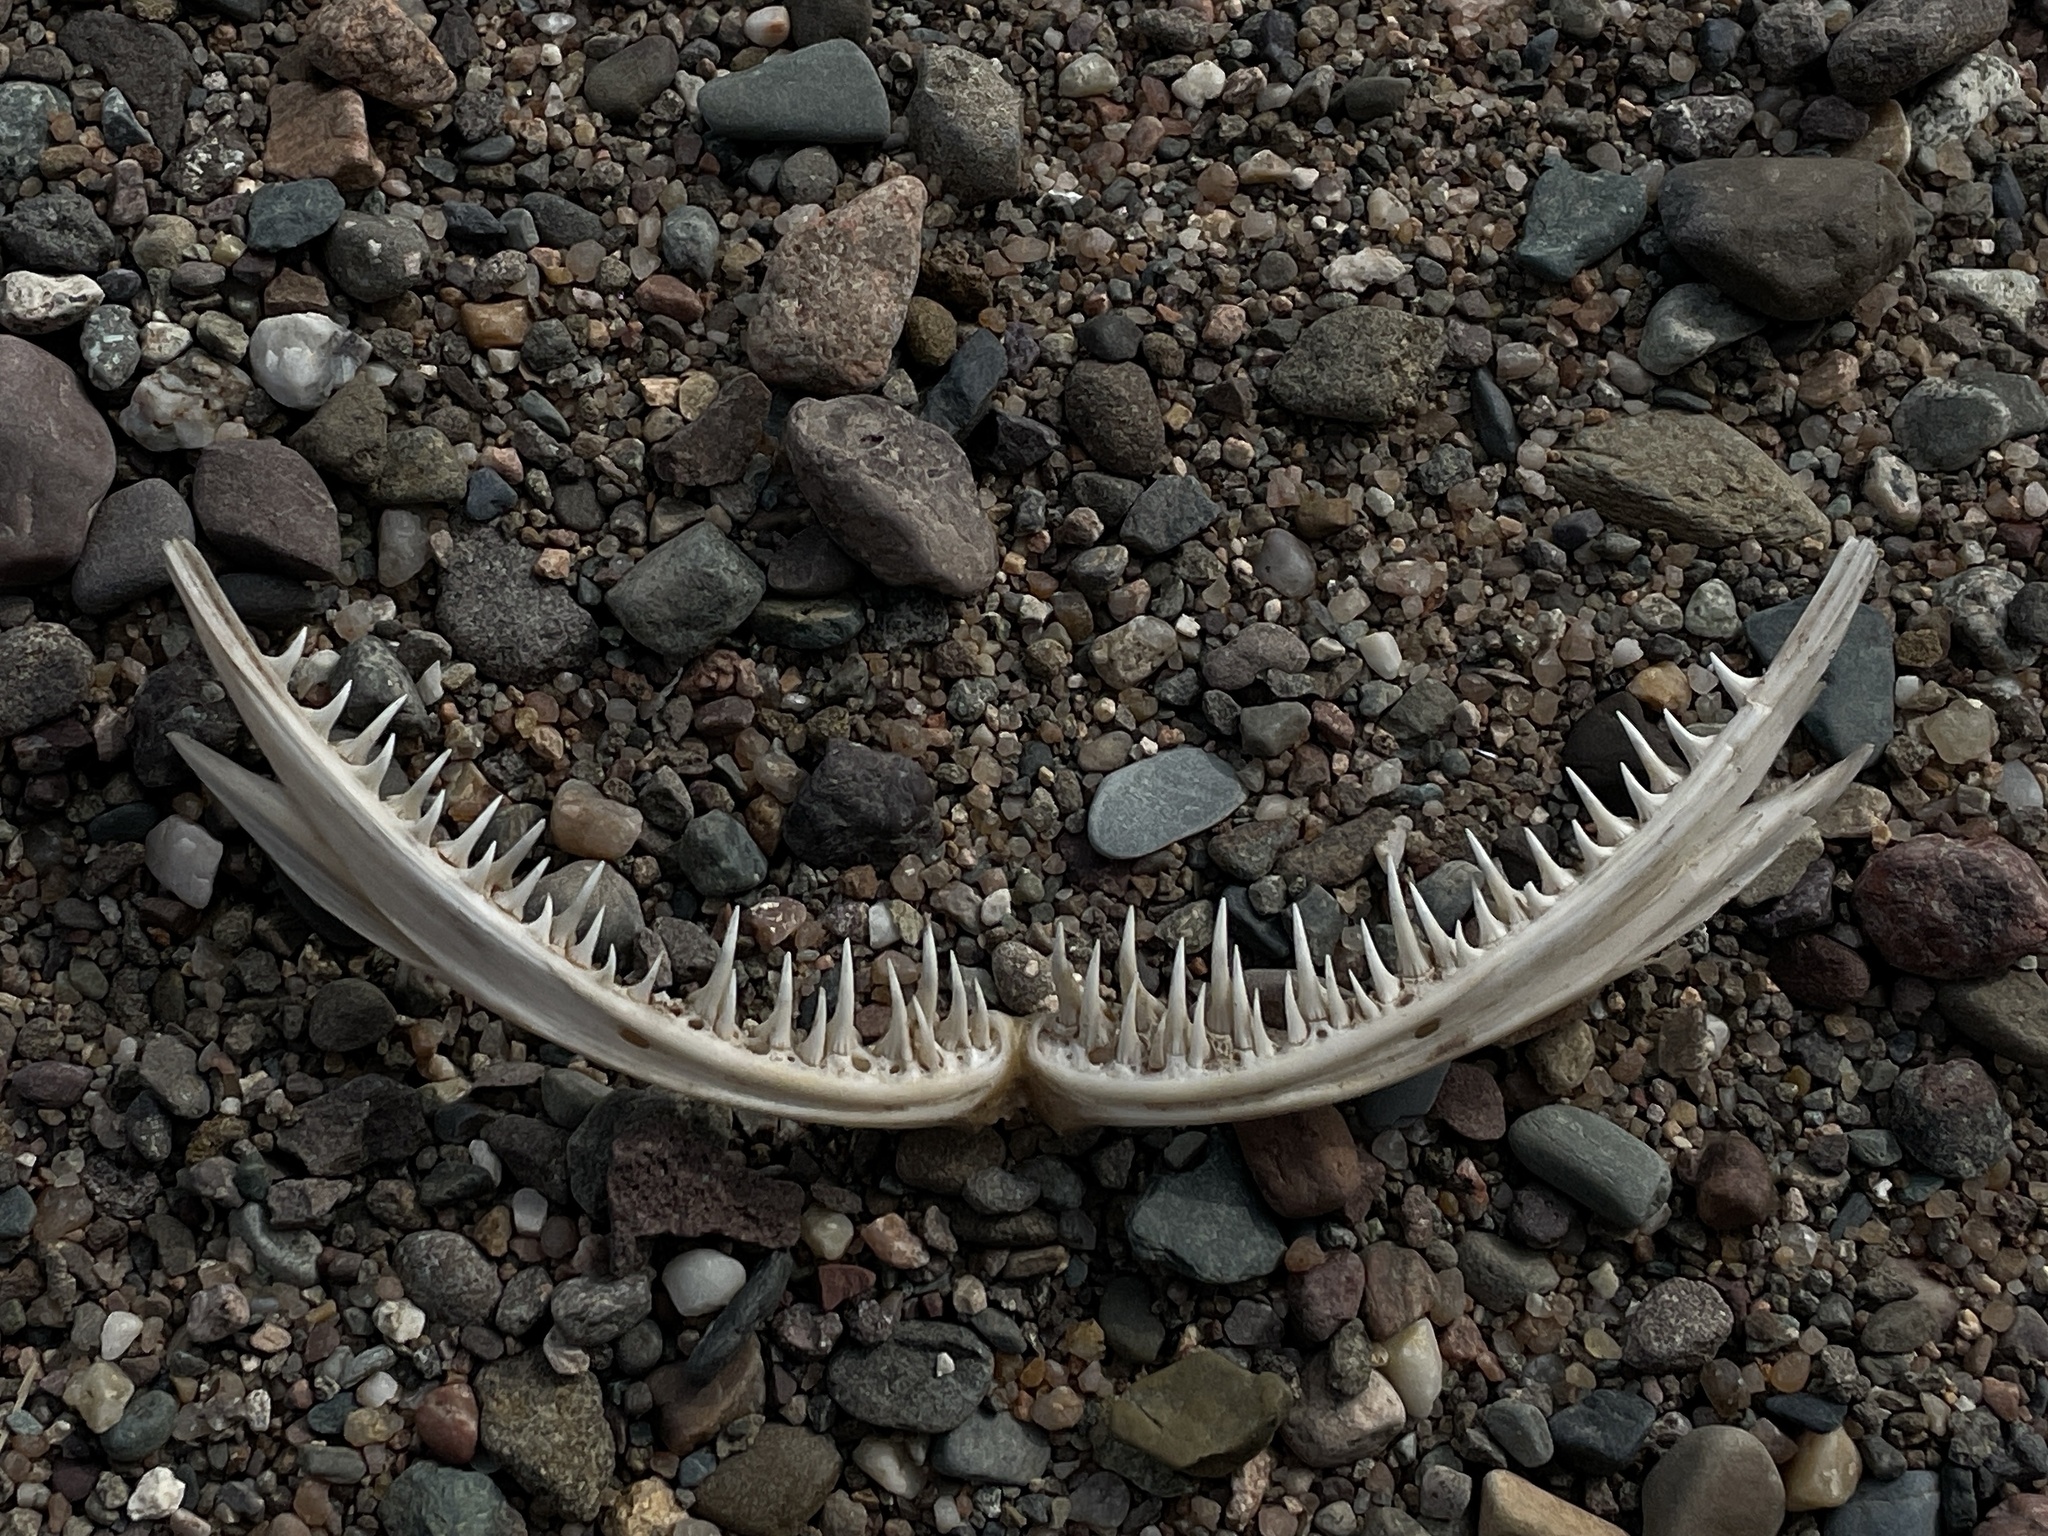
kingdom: Animalia
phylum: Chordata
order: Lophiiformes
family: Lophiidae
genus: Lophius
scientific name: Lophius americanus
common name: American angler
